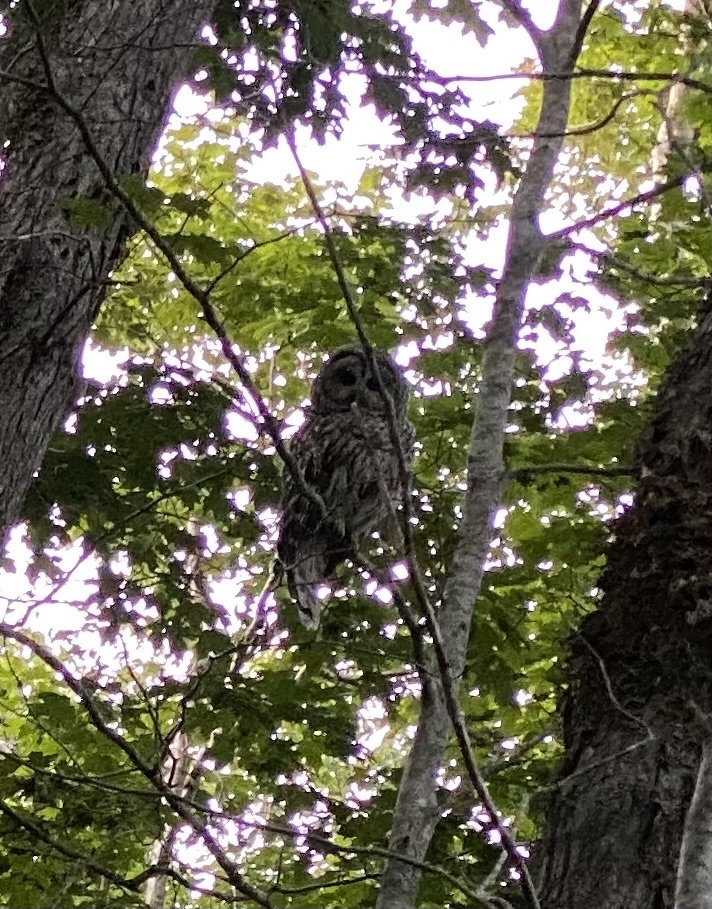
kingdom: Animalia
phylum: Chordata
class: Aves
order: Strigiformes
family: Strigidae
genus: Strix
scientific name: Strix varia
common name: Barred owl
